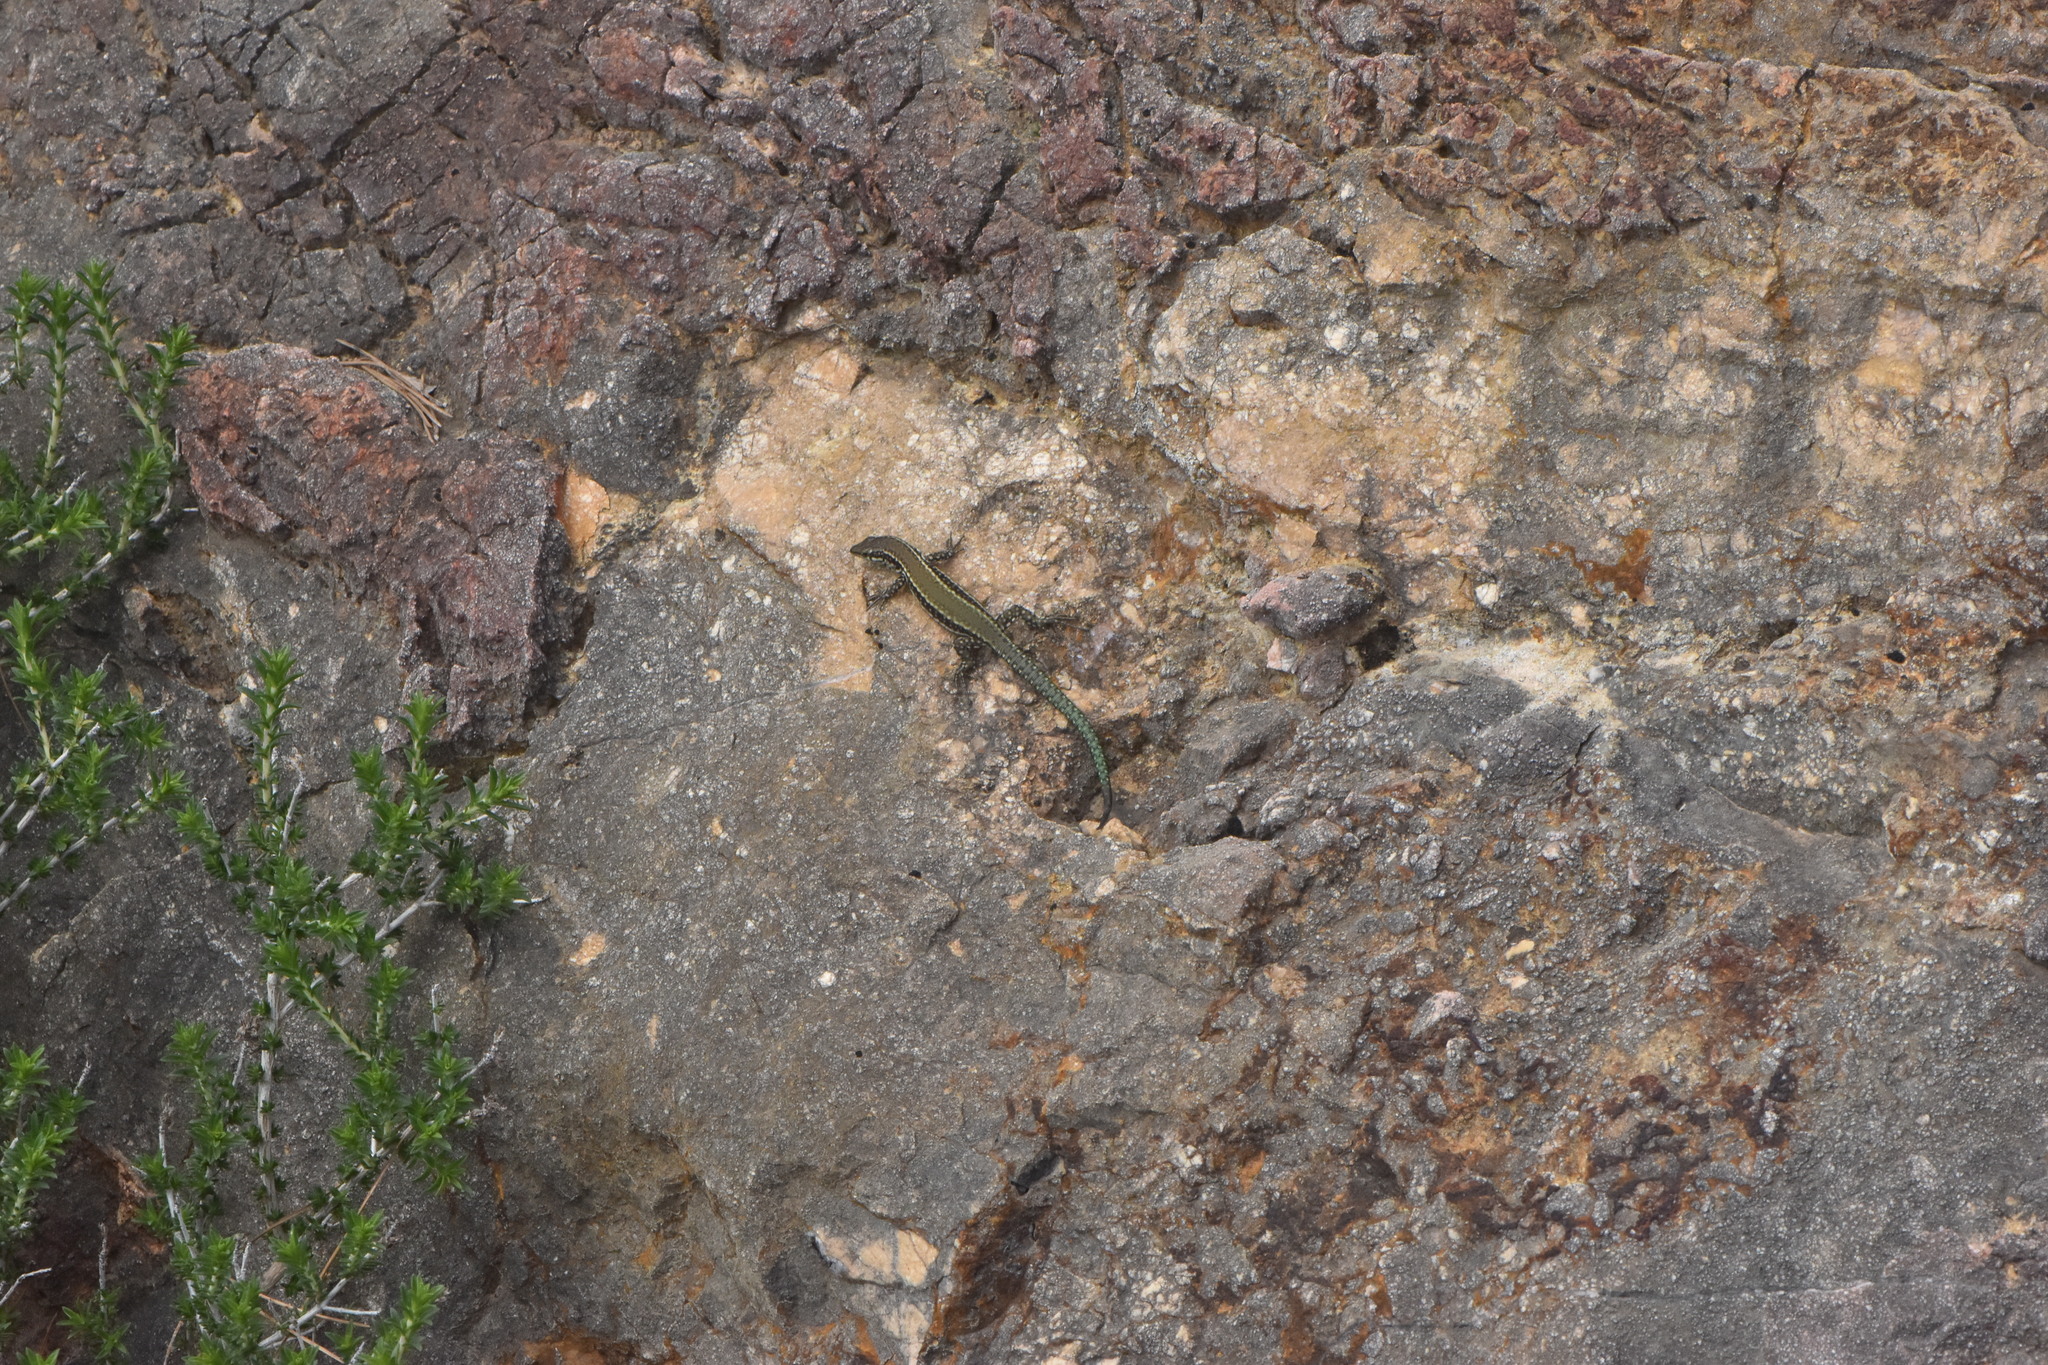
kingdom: Animalia
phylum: Chordata
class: Squamata
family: Lacertidae
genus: Podarcis
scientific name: Podarcis vaucheri
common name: Vaucher's wall lizard
